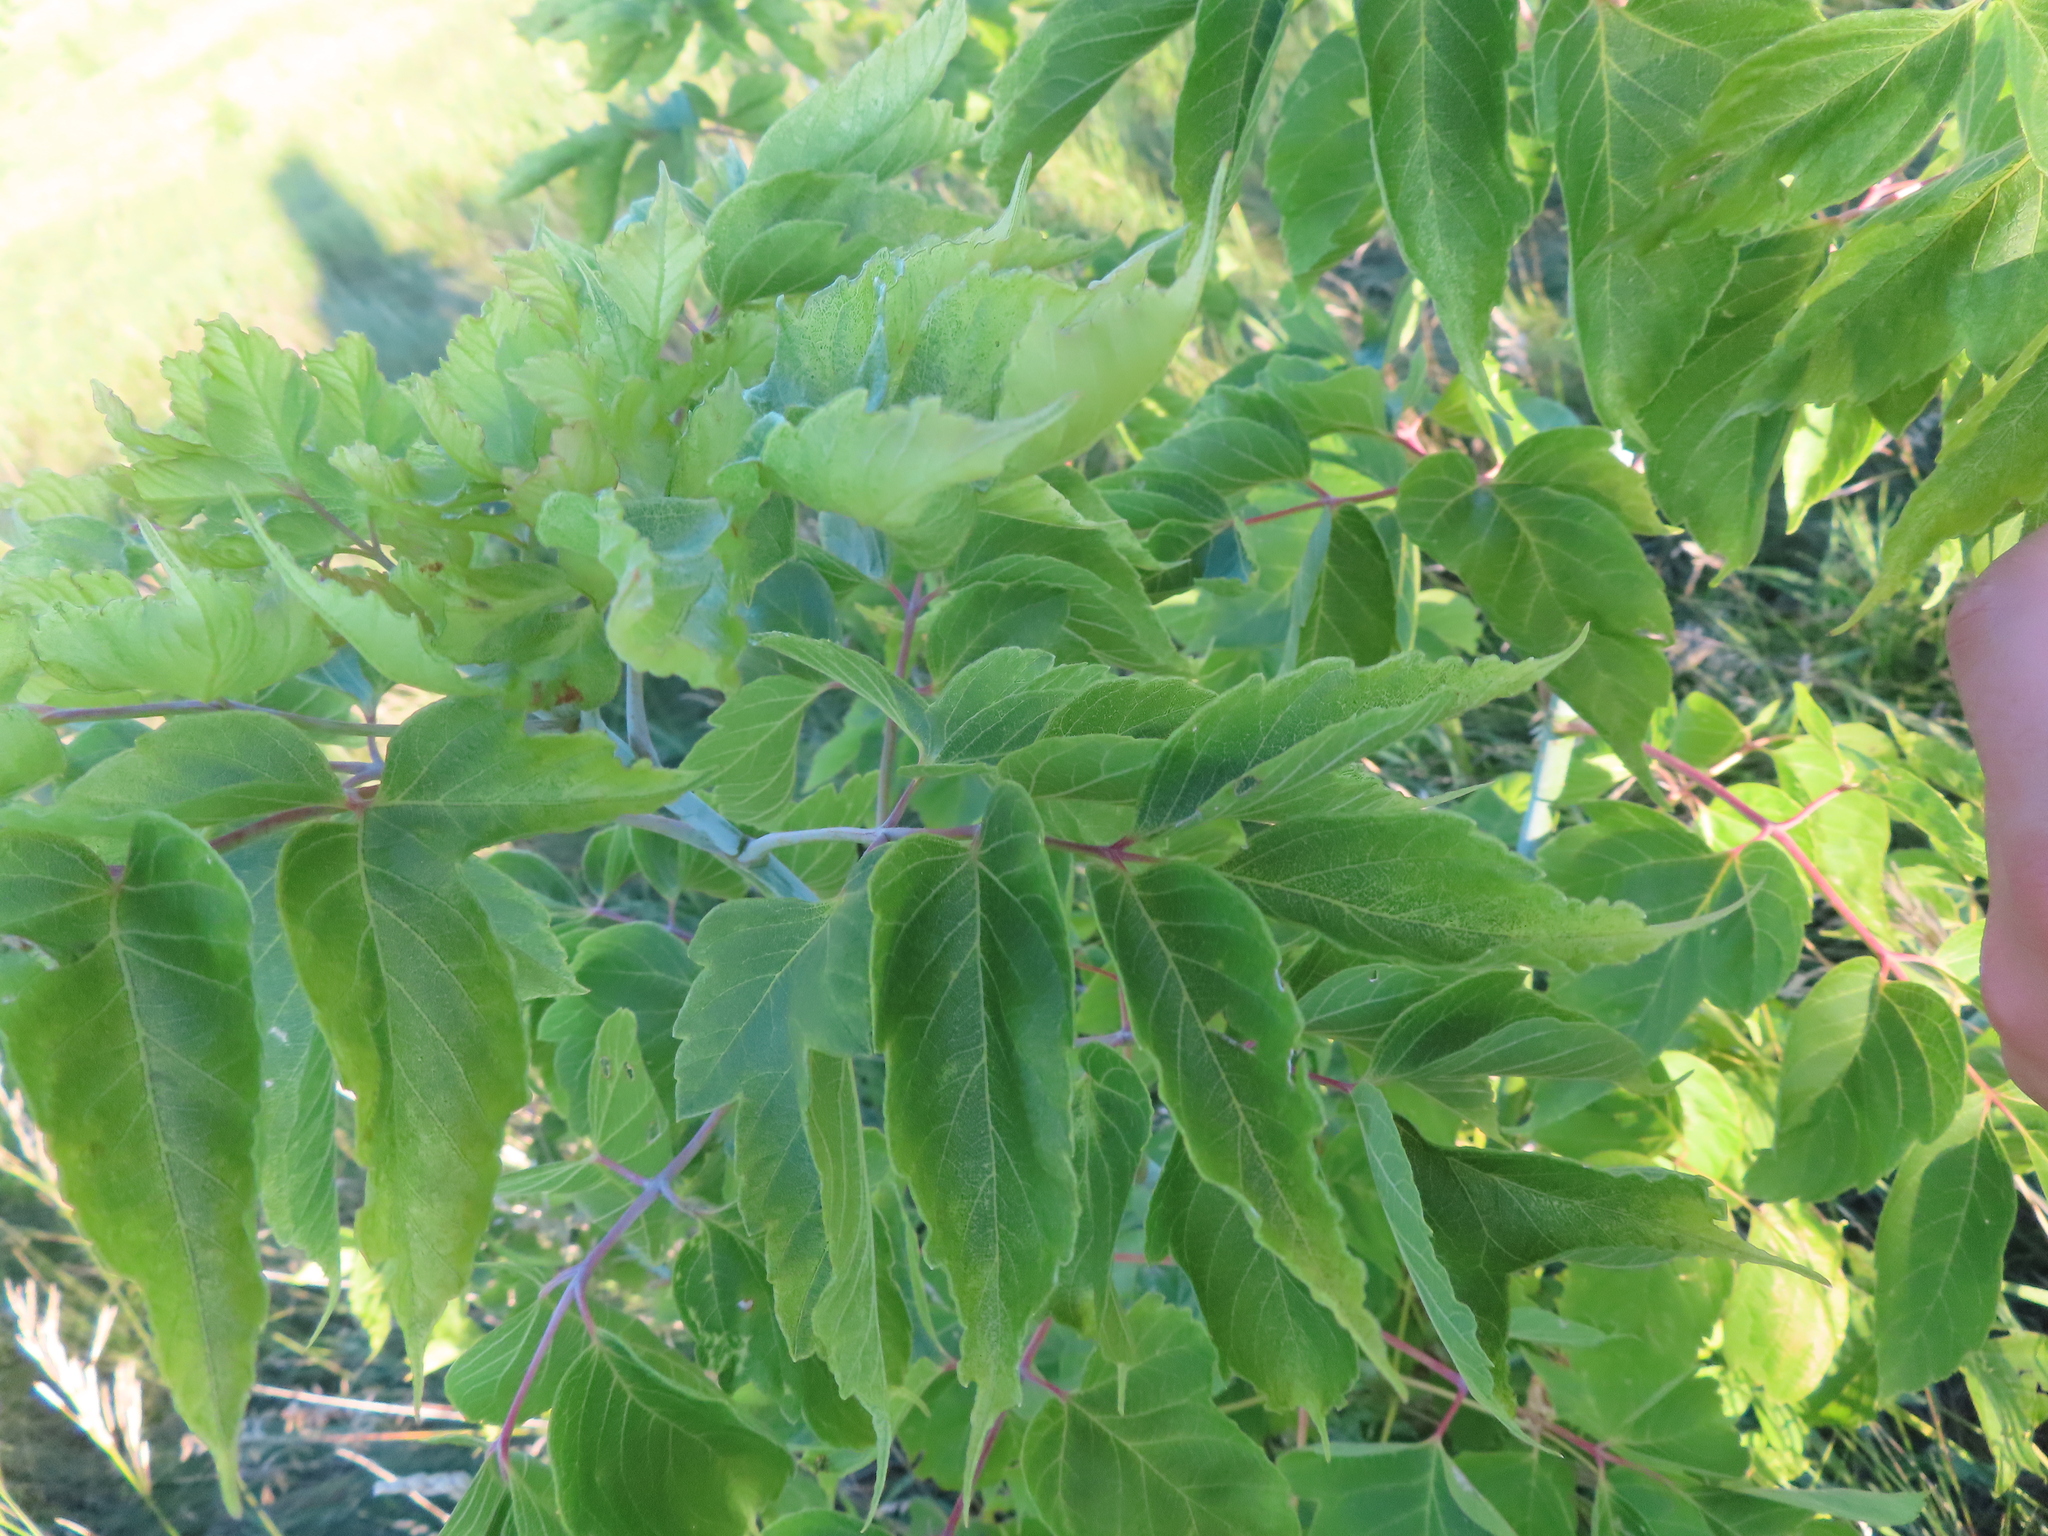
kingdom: Plantae
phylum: Tracheophyta
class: Magnoliopsida
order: Sapindales
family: Sapindaceae
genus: Acer
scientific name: Acer negundo
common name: Ashleaf maple
